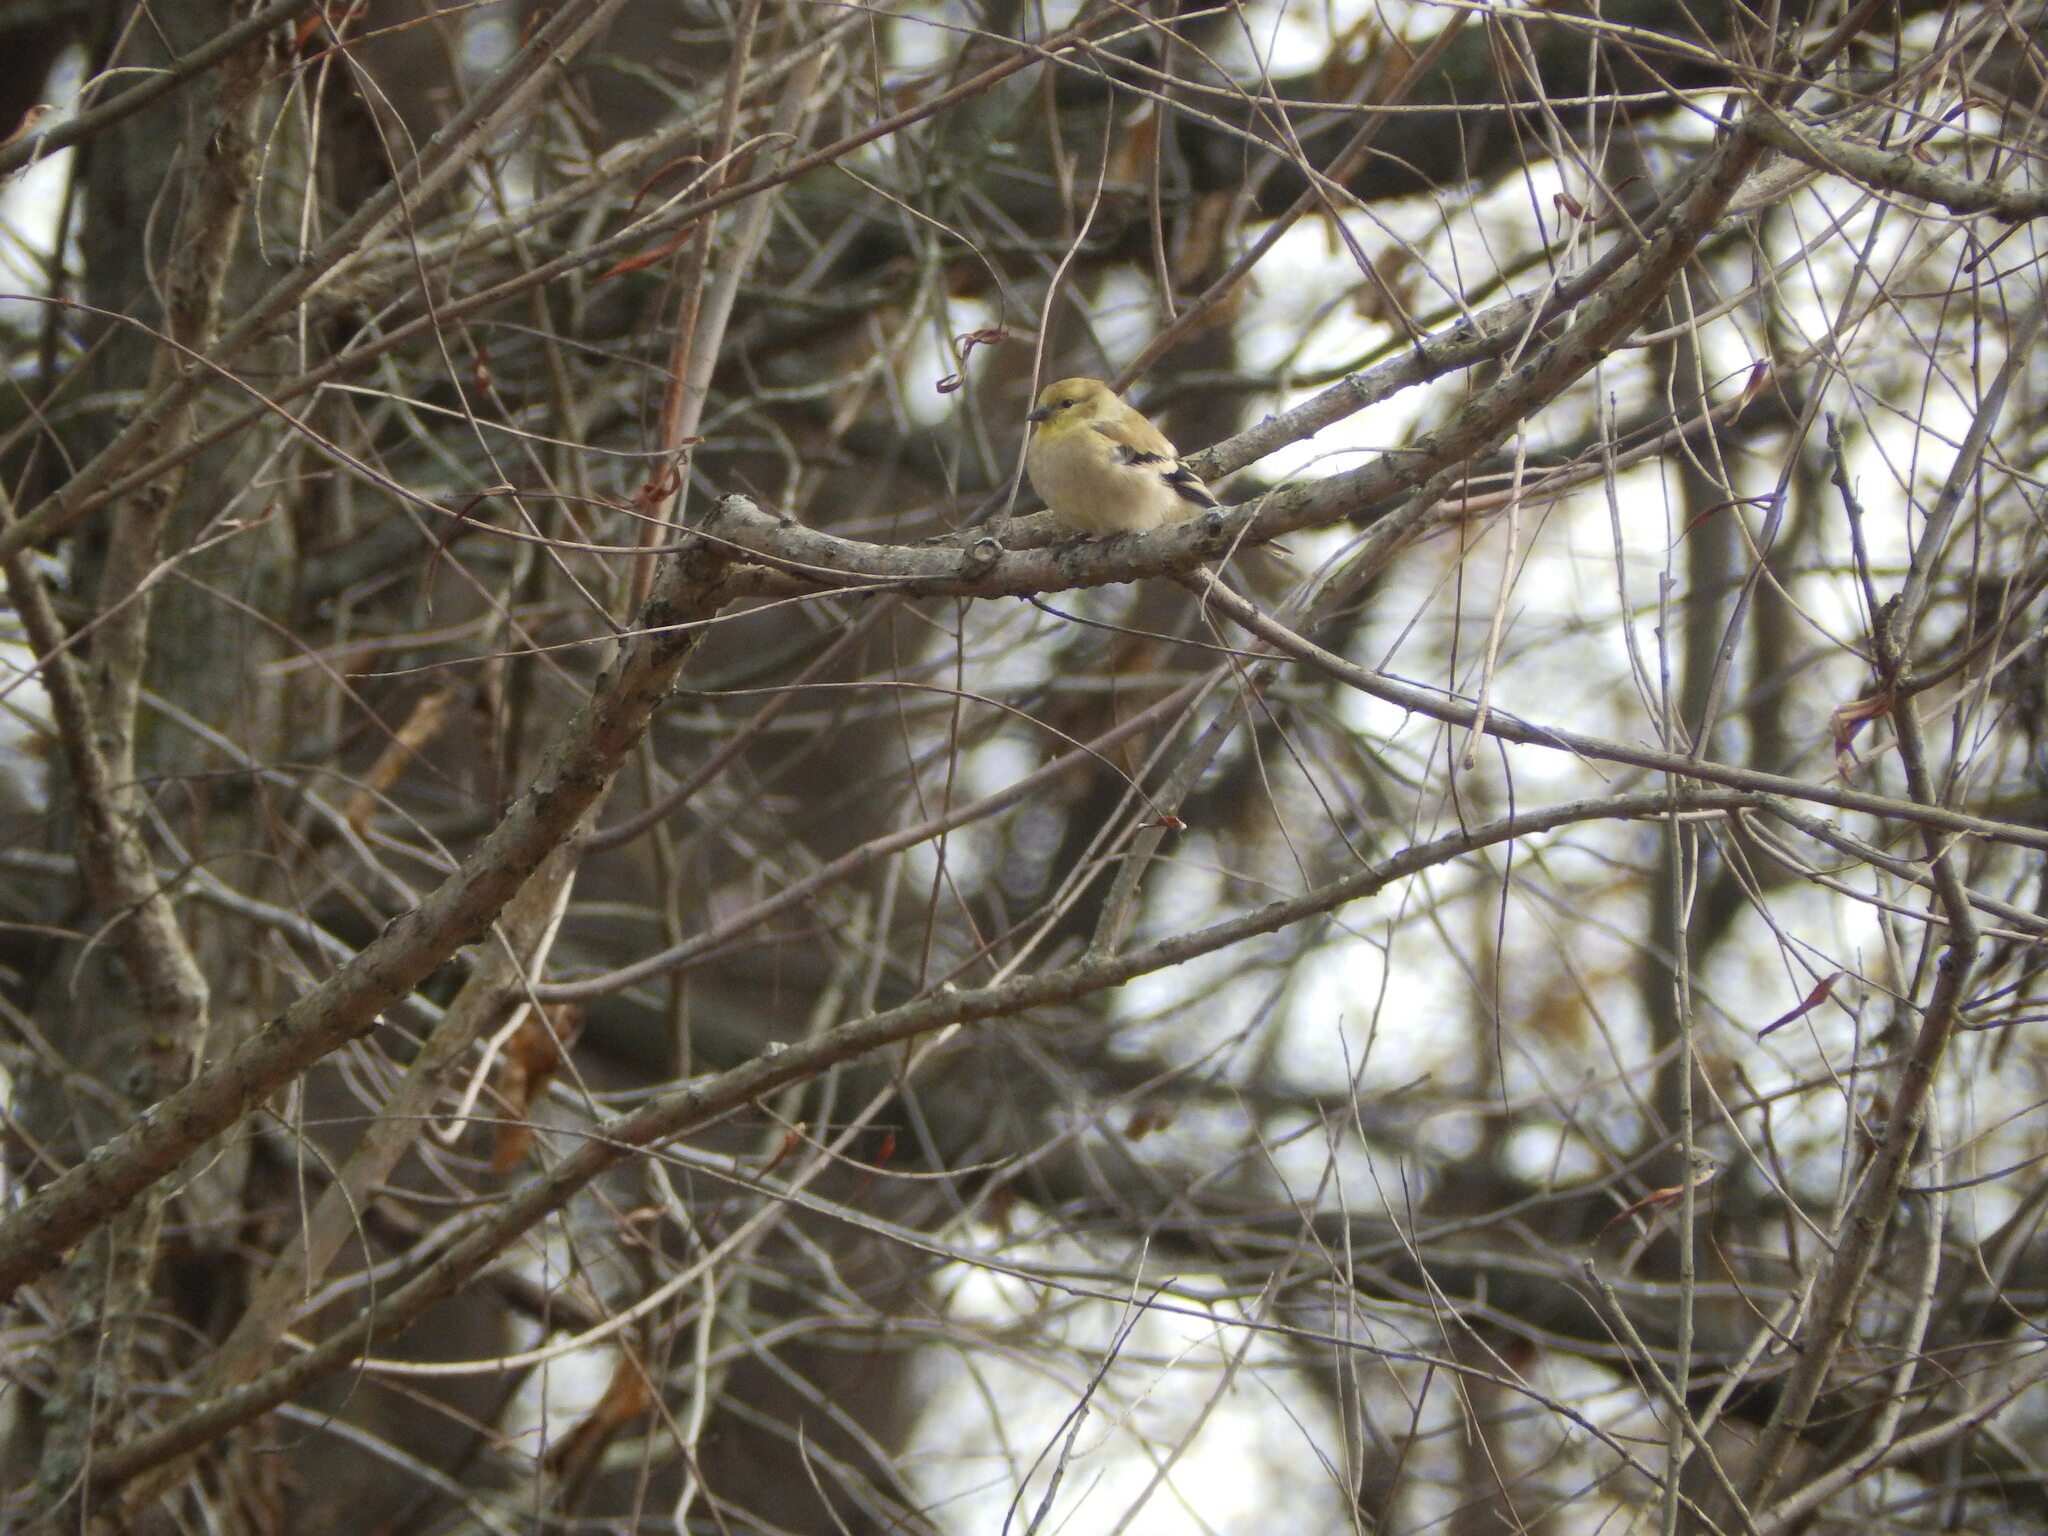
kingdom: Animalia
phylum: Chordata
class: Aves
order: Passeriformes
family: Fringillidae
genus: Spinus
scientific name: Spinus tristis
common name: American goldfinch
